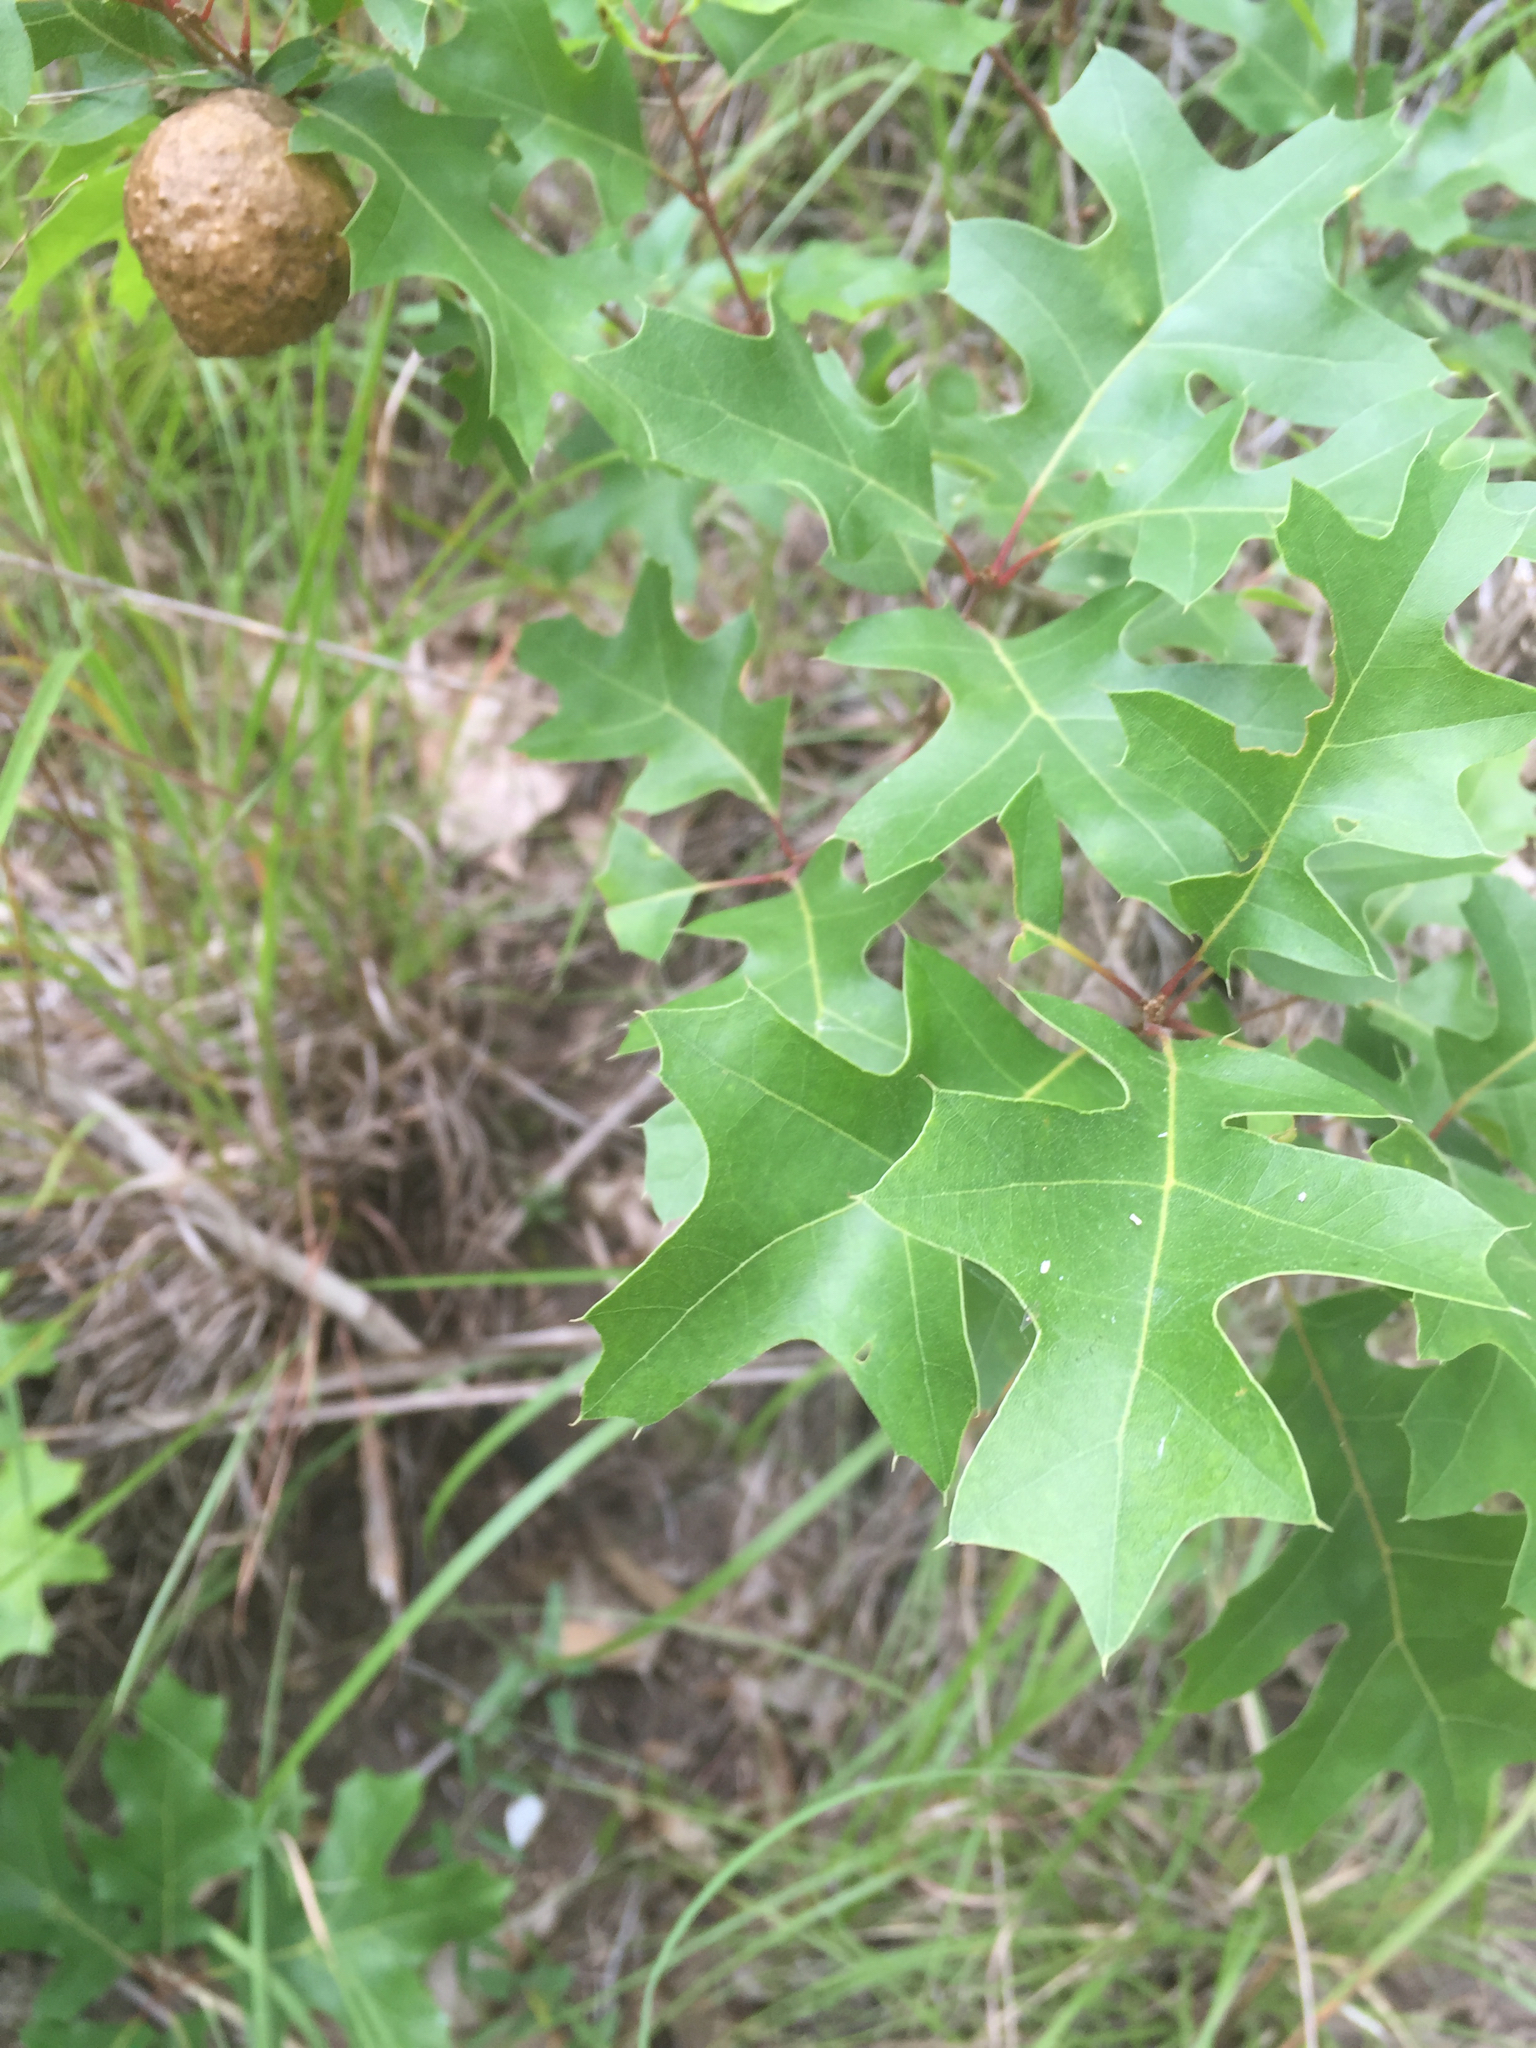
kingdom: Animalia
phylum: Arthropoda
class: Insecta
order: Hymenoptera
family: Cynipidae
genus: Amphibolips
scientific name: Amphibolips
